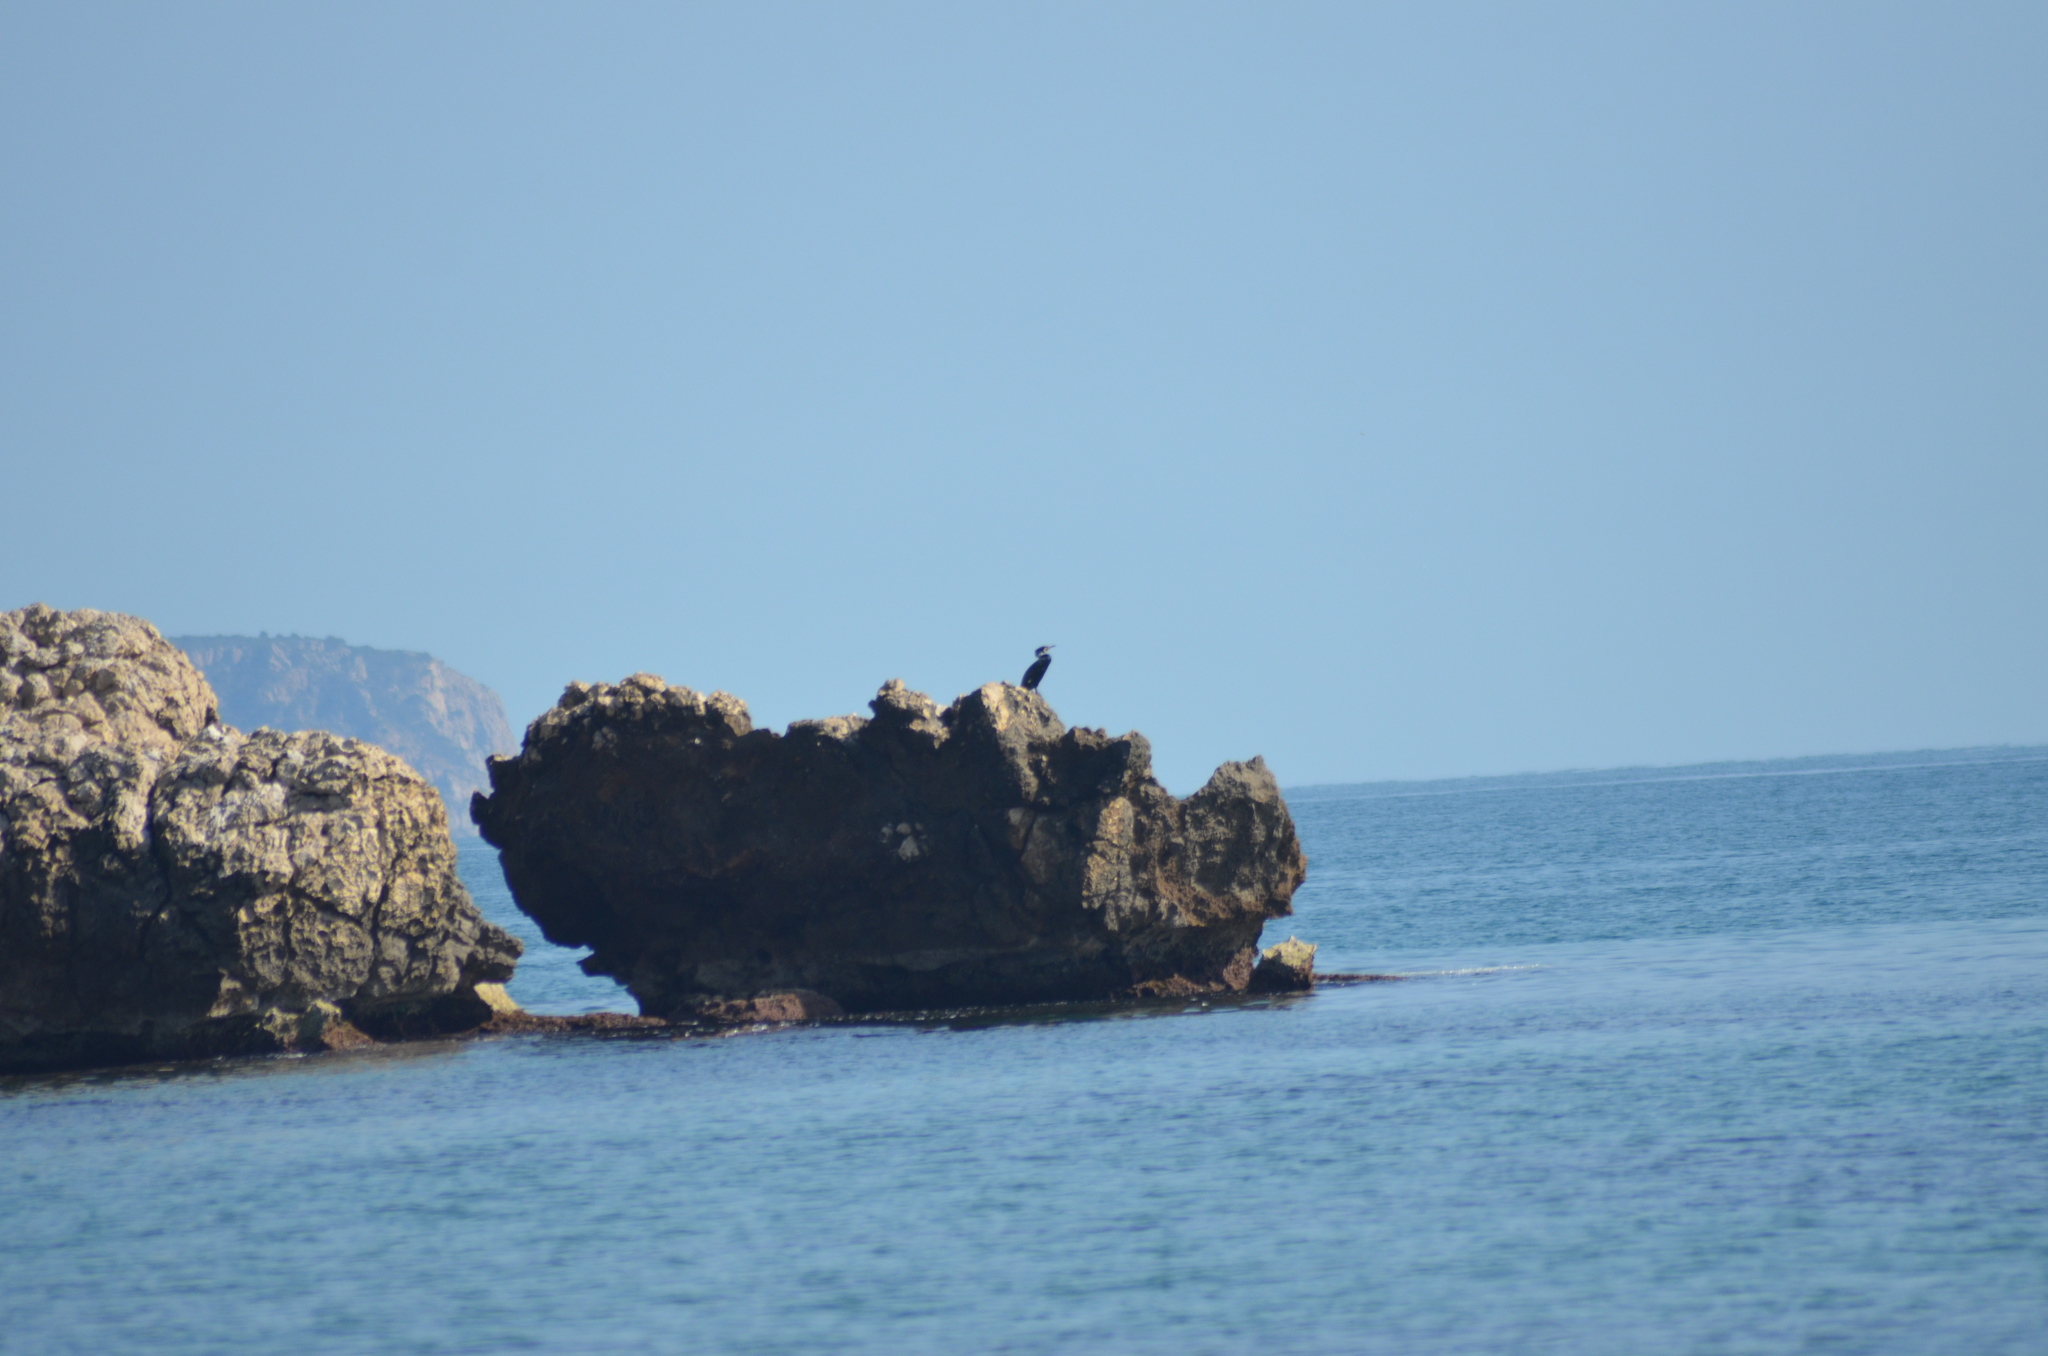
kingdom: Animalia
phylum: Chordata
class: Aves
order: Suliformes
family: Phalacrocoracidae
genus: Phalacrocorax
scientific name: Phalacrocorax carbo
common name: Great cormorant
